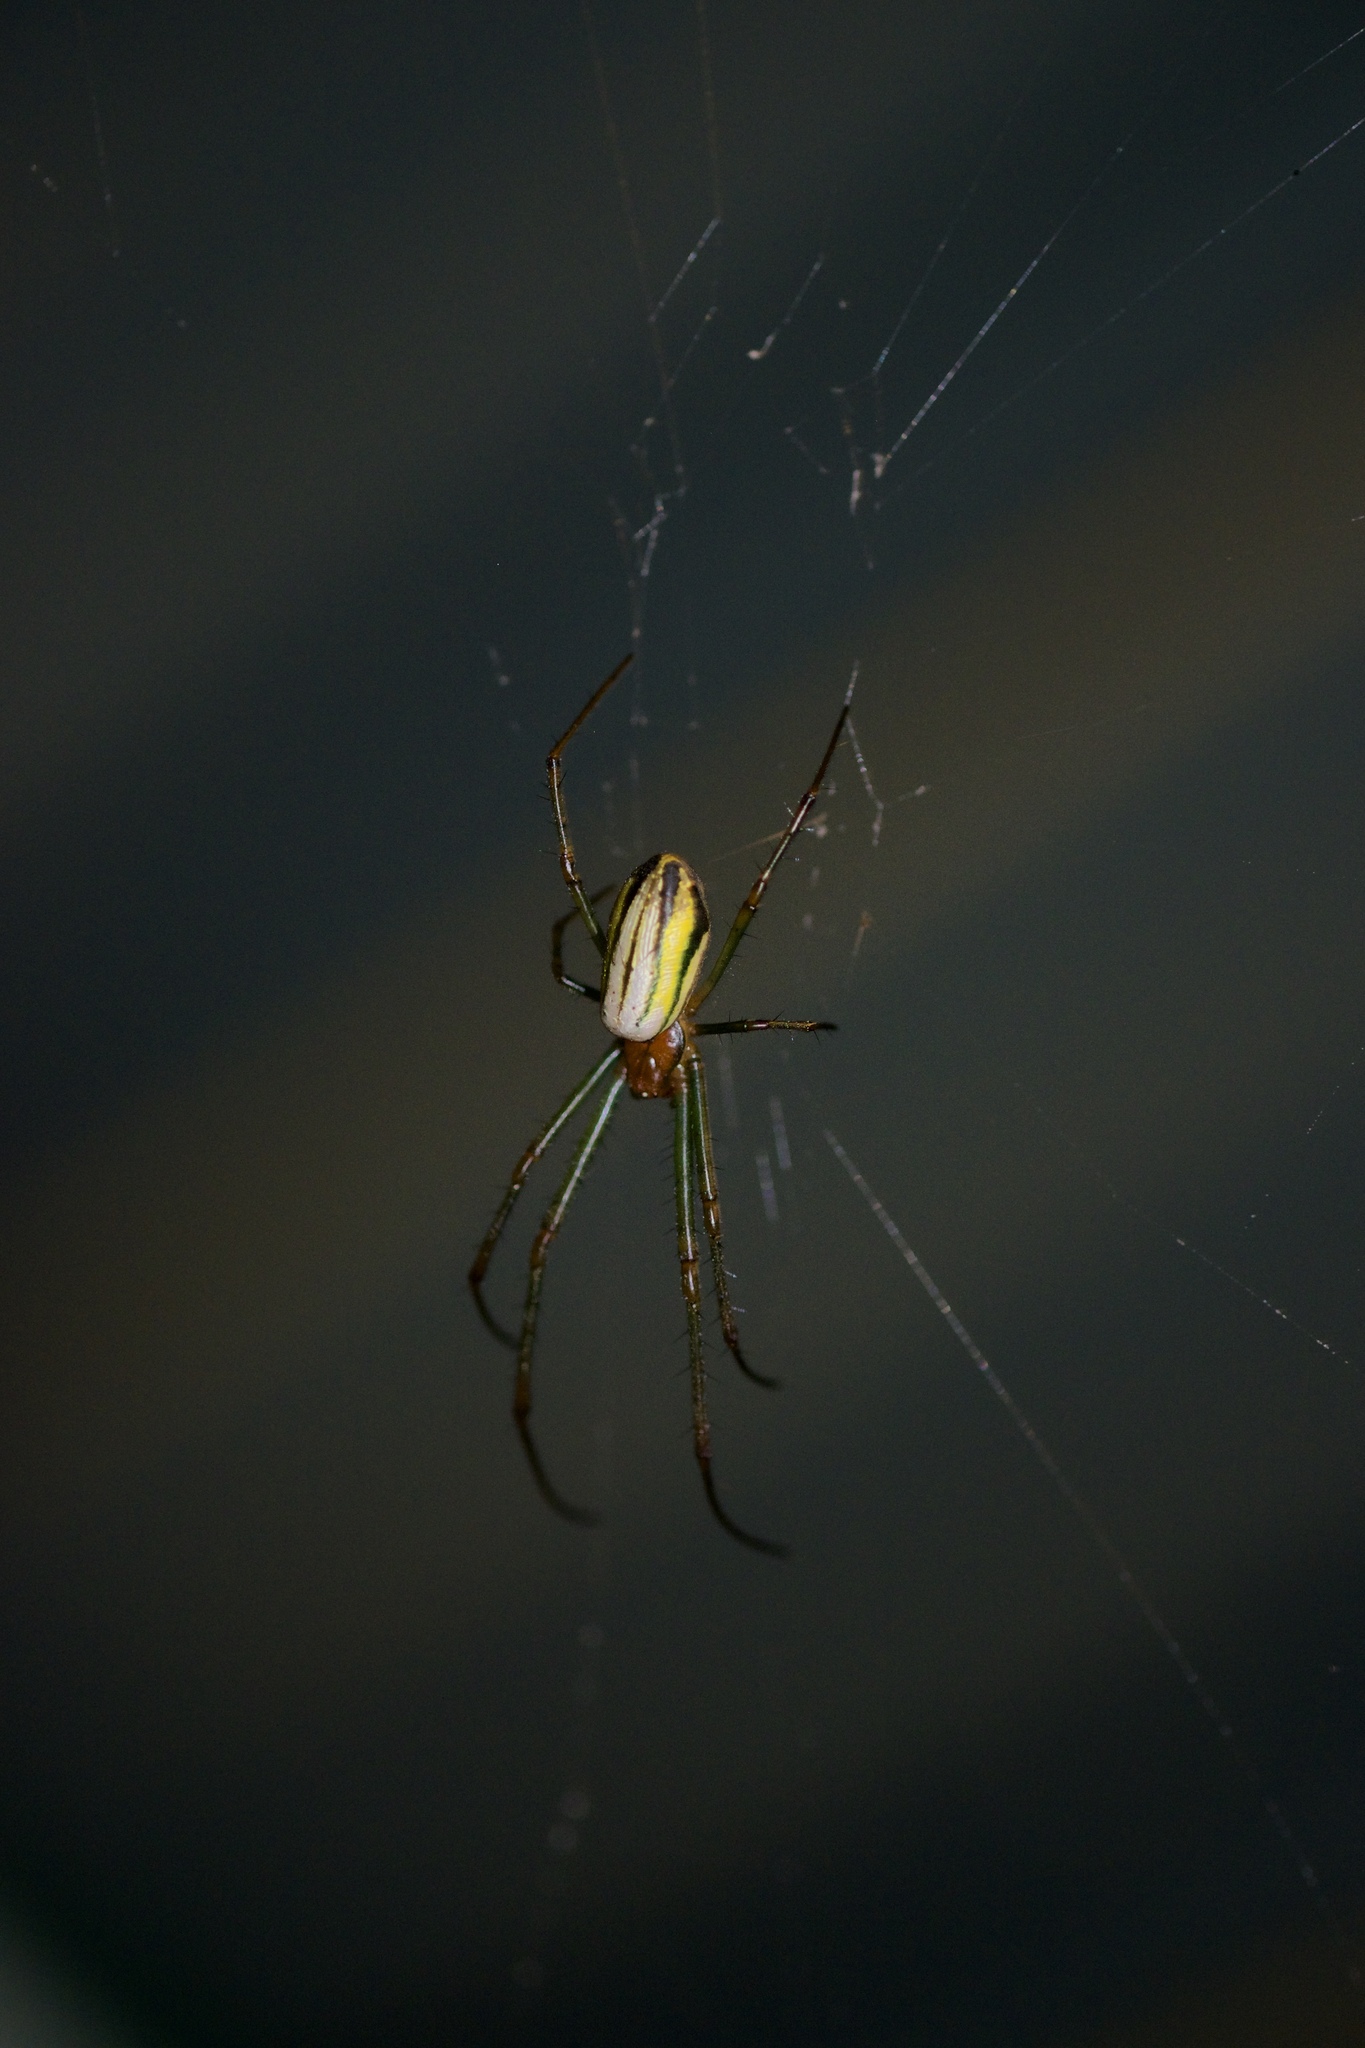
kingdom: Animalia
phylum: Arthropoda
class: Arachnida
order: Araneae
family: Tetragnathidae
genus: Leucauge
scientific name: Leucauge celebesiana
